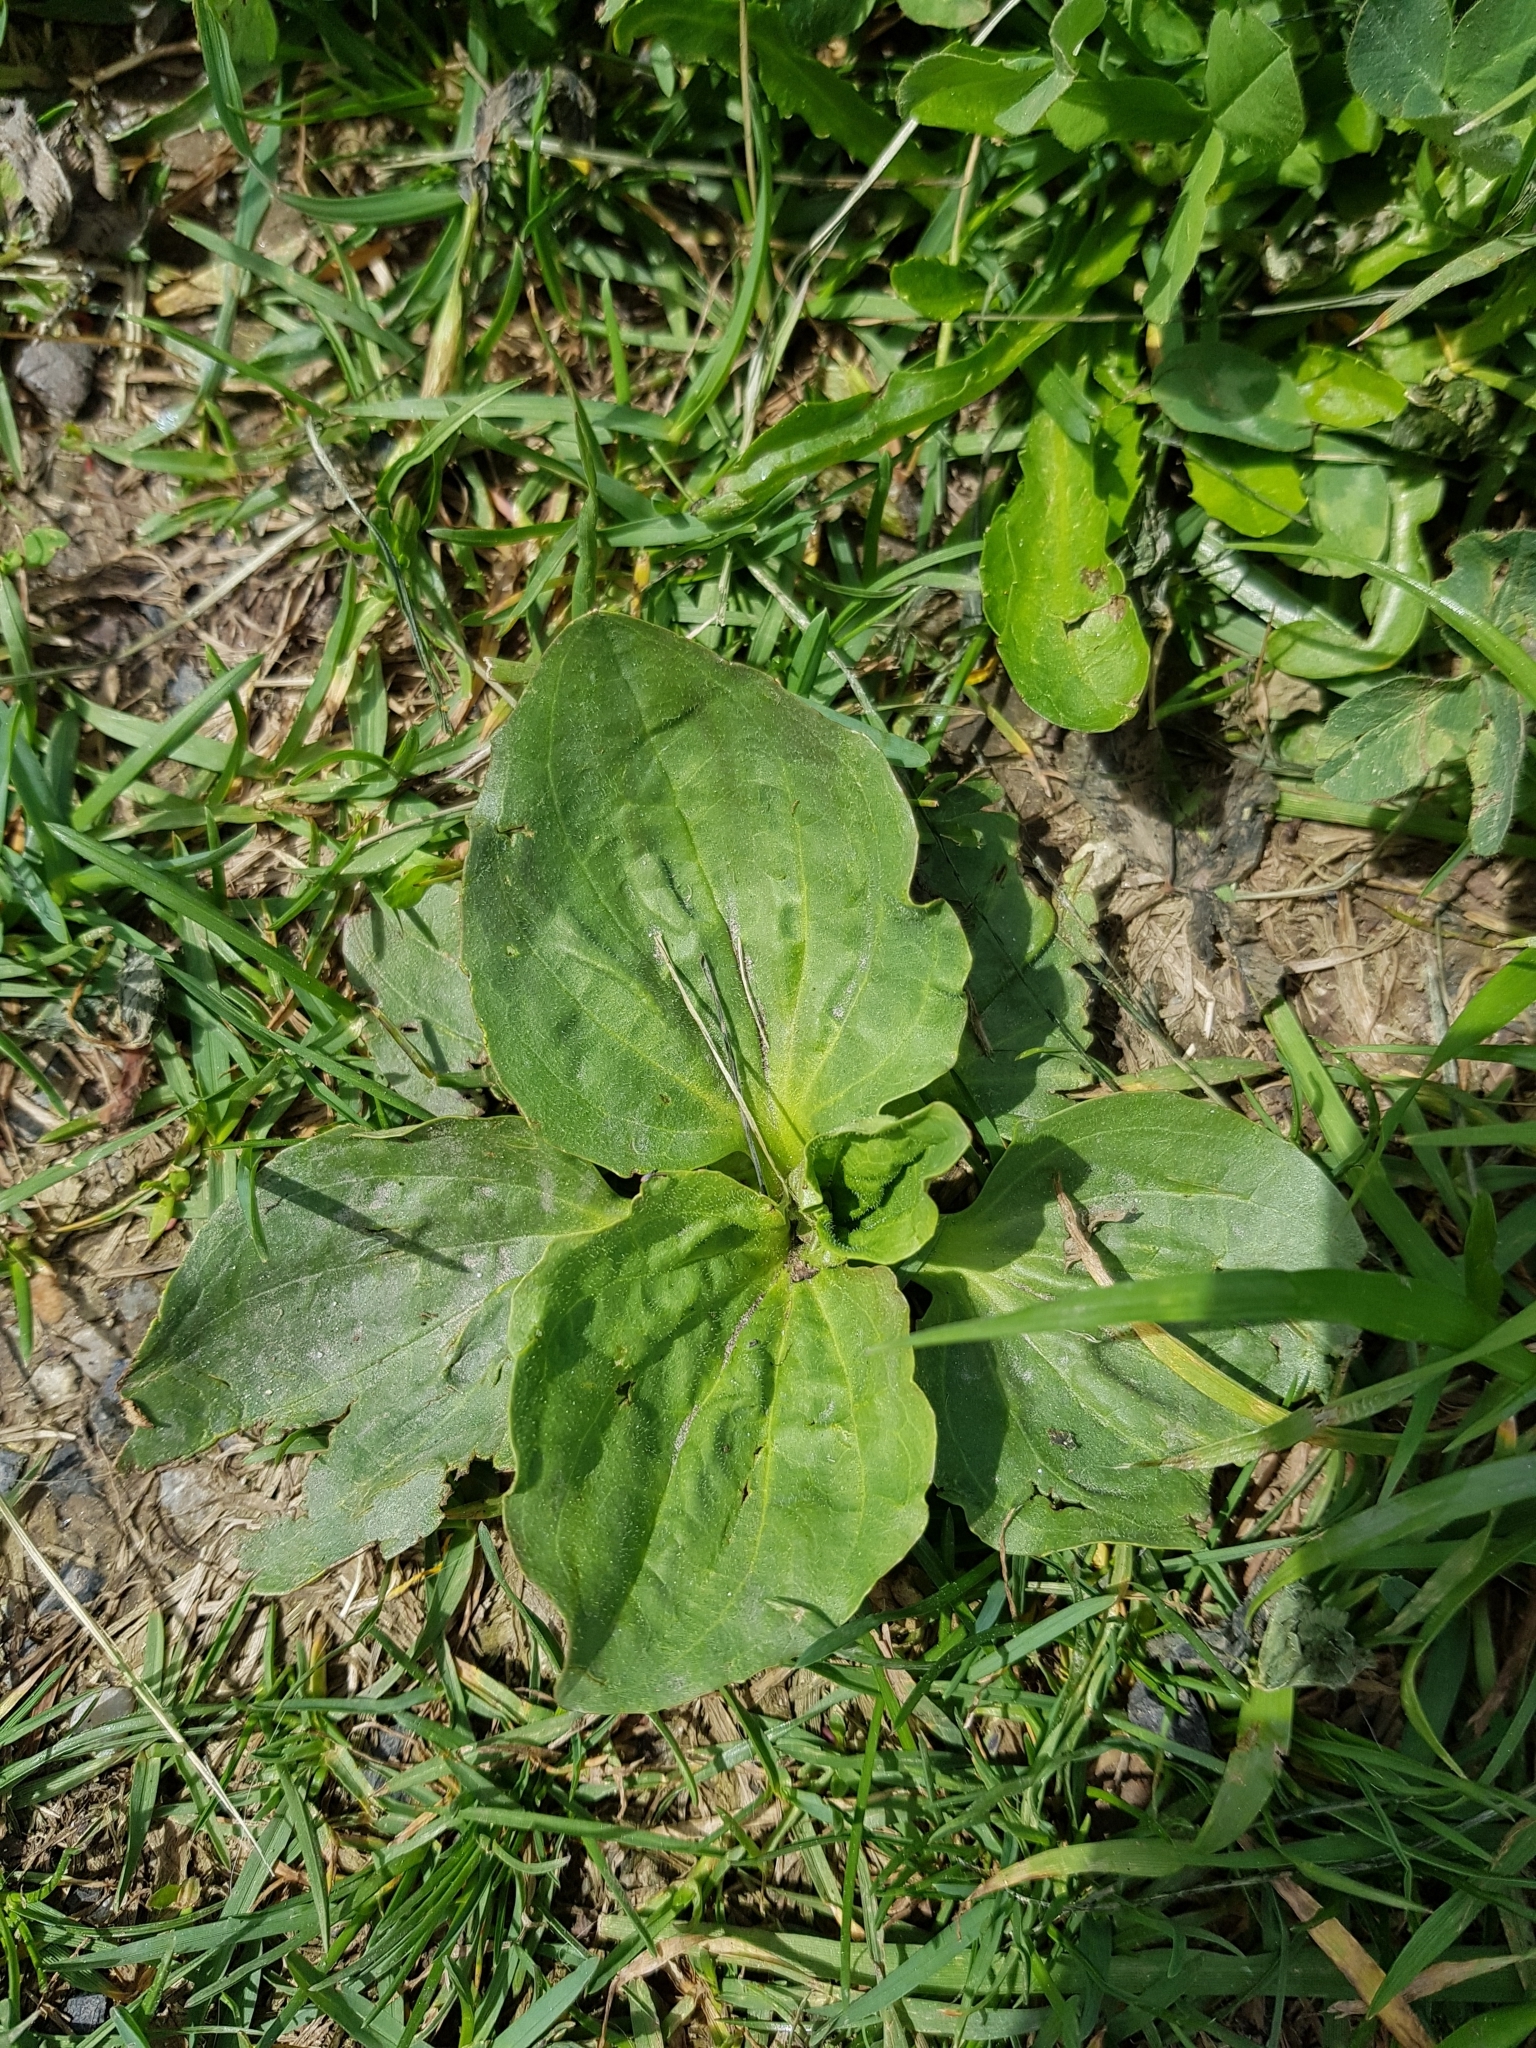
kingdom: Plantae
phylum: Tracheophyta
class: Magnoliopsida
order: Lamiales
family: Plantaginaceae
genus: Plantago
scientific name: Plantago major
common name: Common plantain
